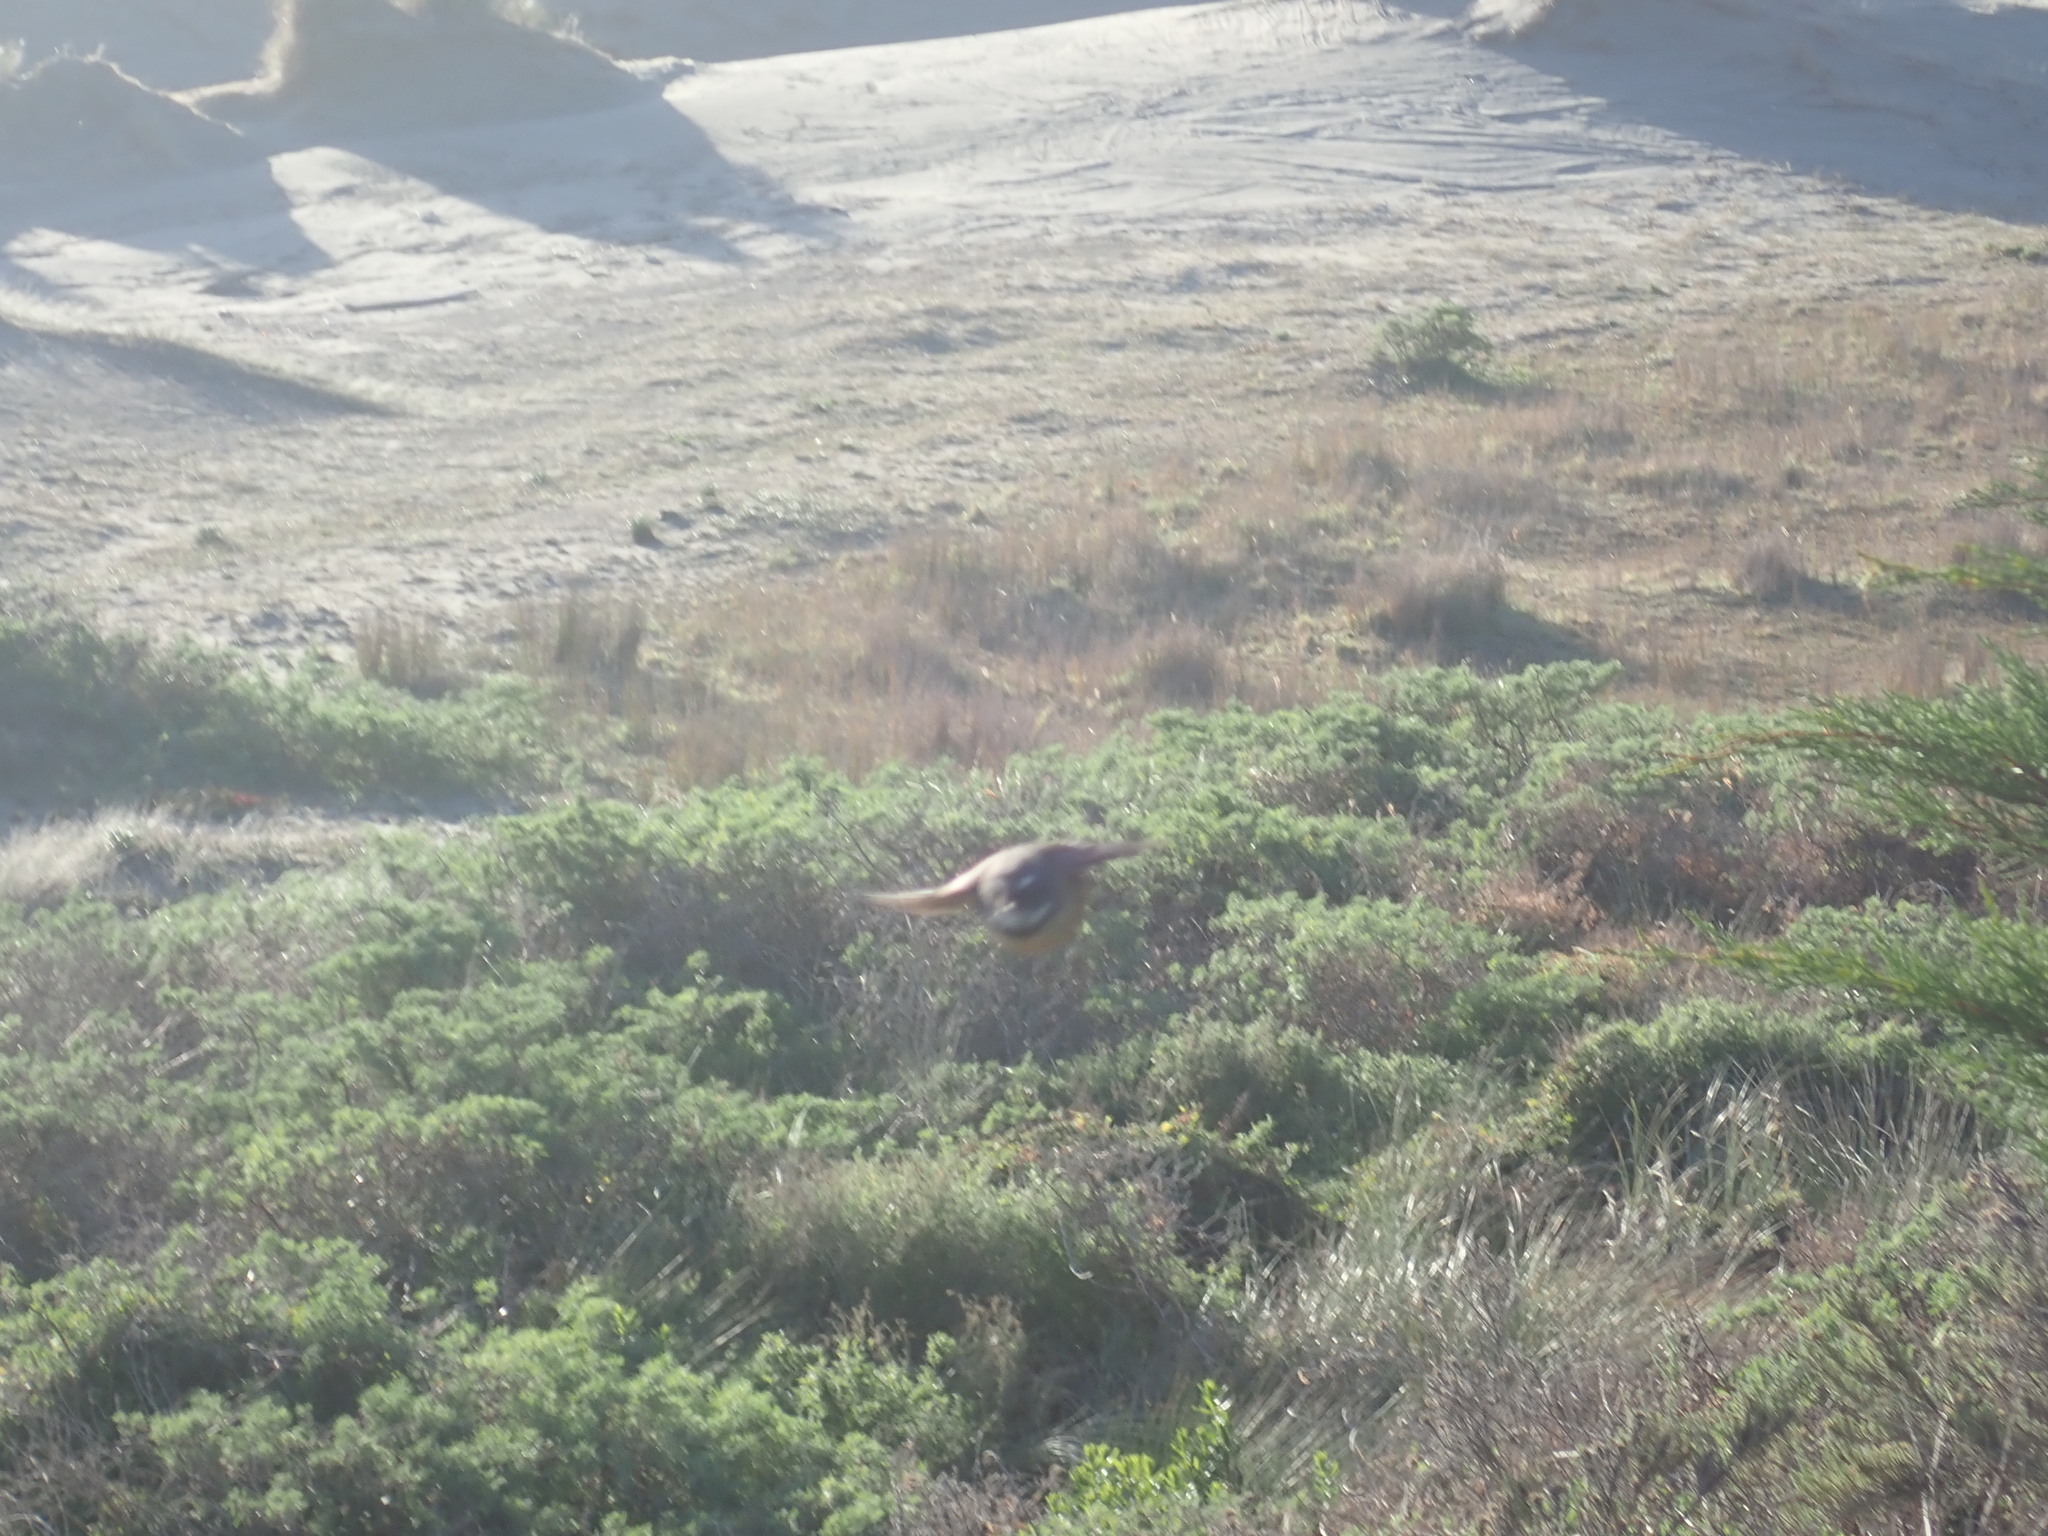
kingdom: Animalia
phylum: Chordata
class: Aves
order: Passeriformes
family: Rhipiduridae
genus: Rhipidura
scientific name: Rhipidura fuliginosa
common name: New zealand fantail
